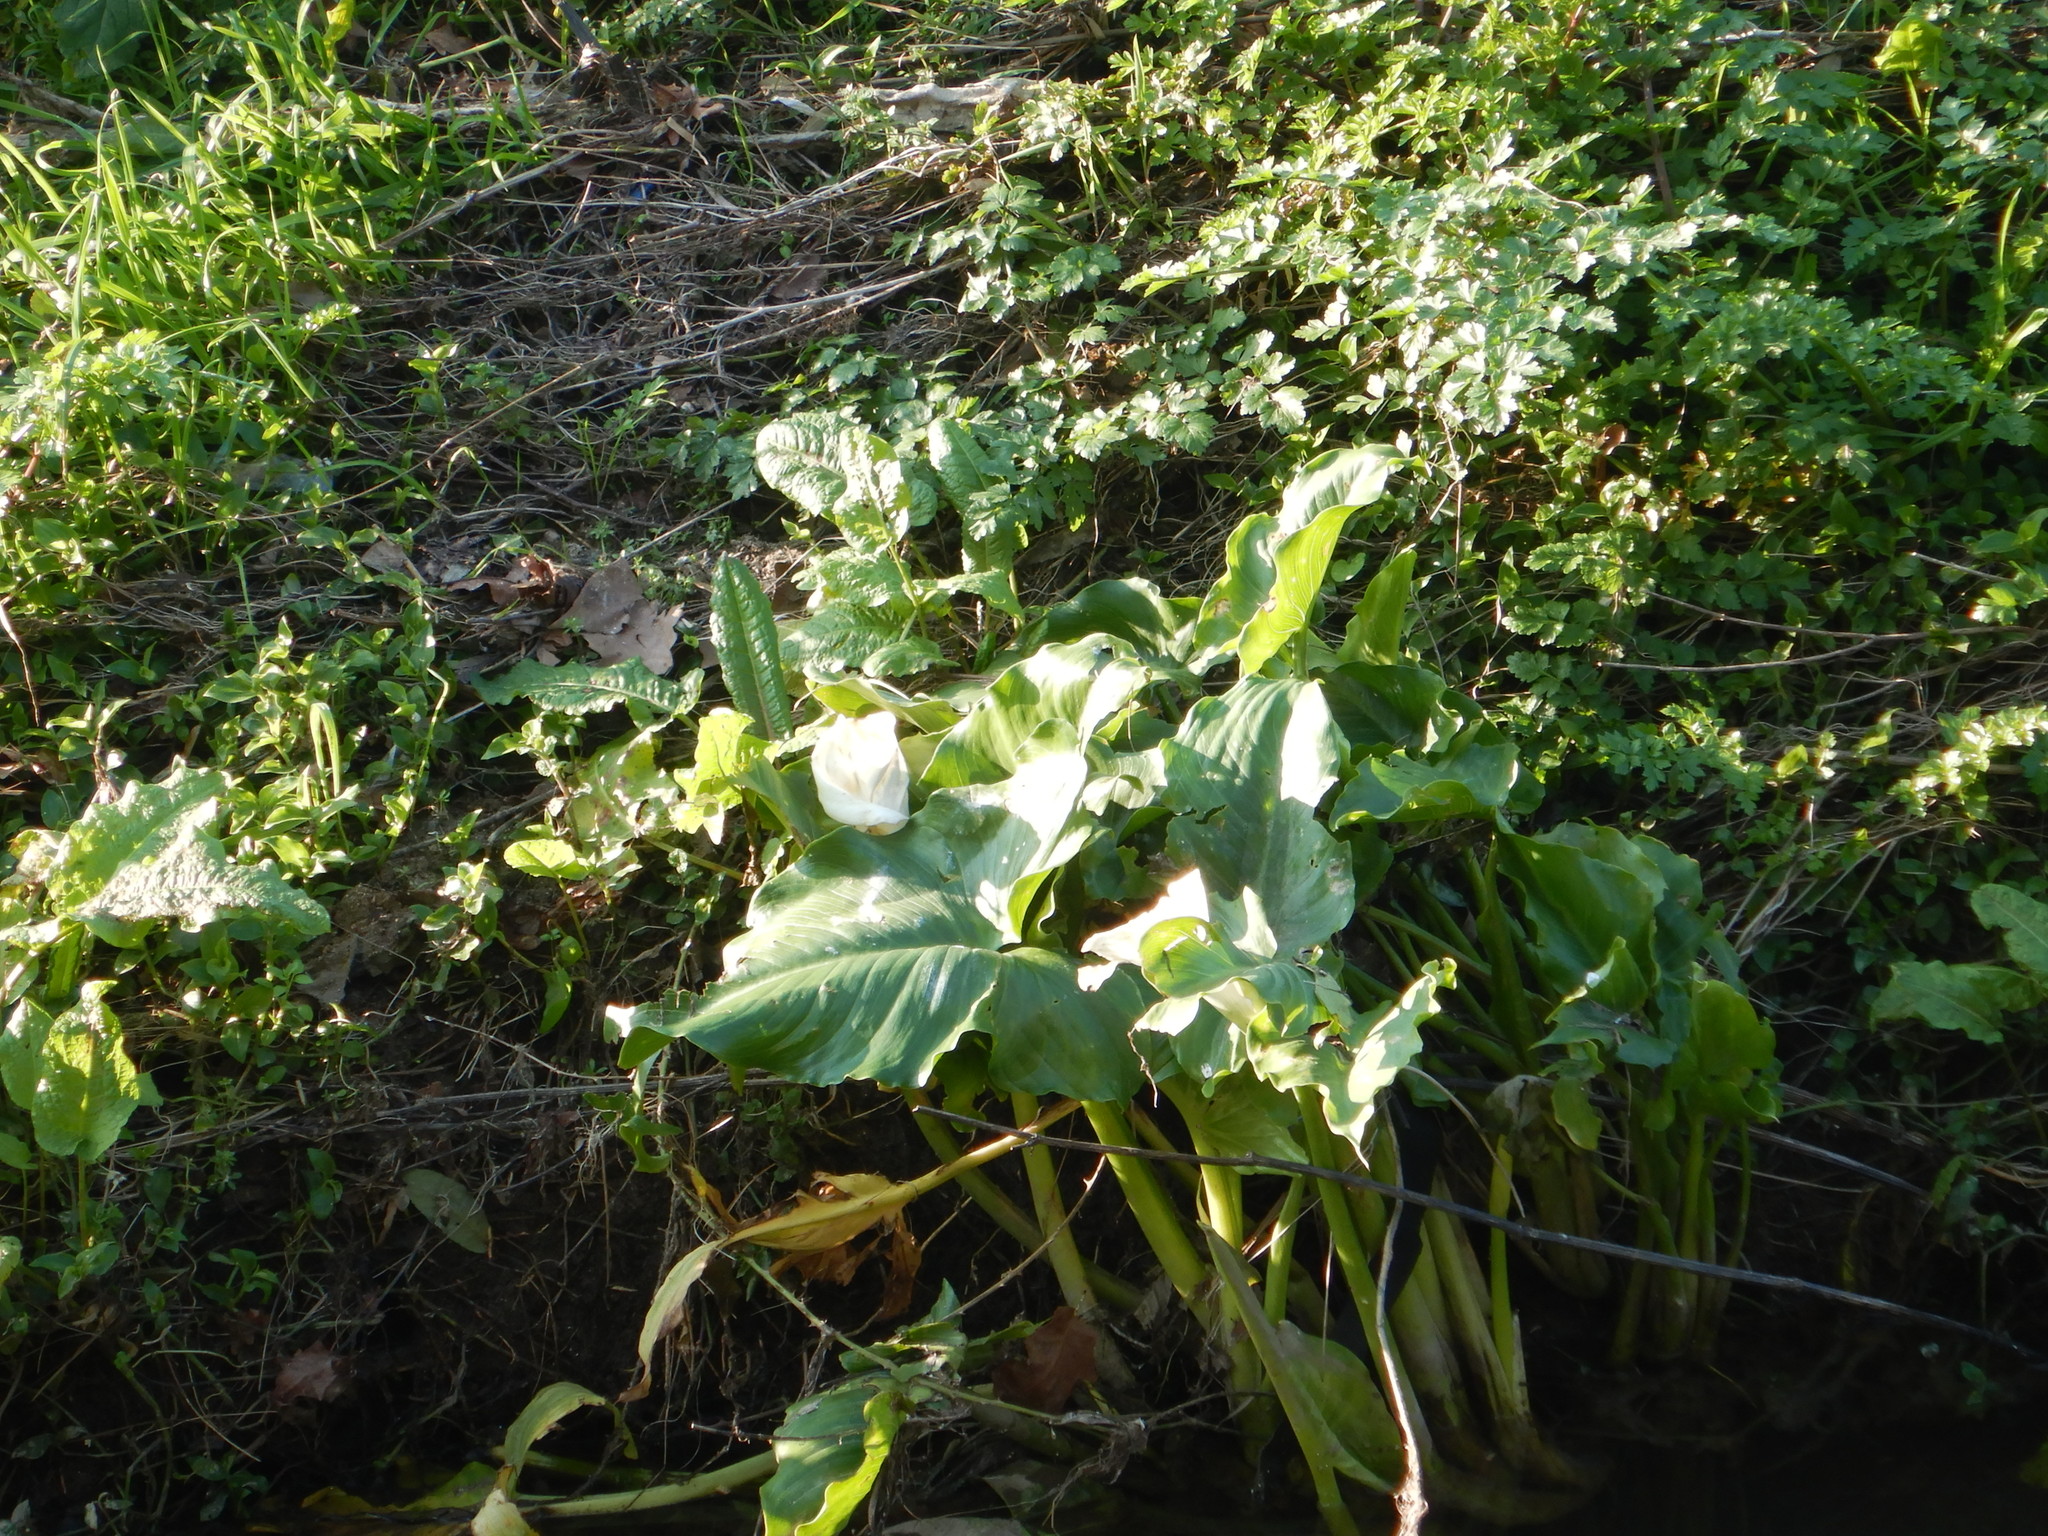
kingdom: Plantae
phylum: Tracheophyta
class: Liliopsida
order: Alismatales
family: Araceae
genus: Zantedeschia
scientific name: Zantedeschia aethiopica
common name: Altar-lily
